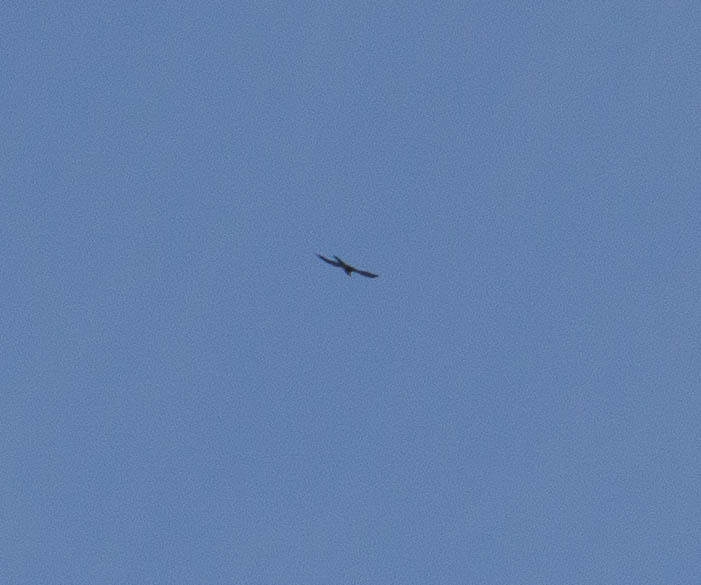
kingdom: Animalia
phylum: Chordata
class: Aves
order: Accipitriformes
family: Accipitridae
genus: Ictinia
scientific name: Ictinia mississippiensis
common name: Mississippi kite
